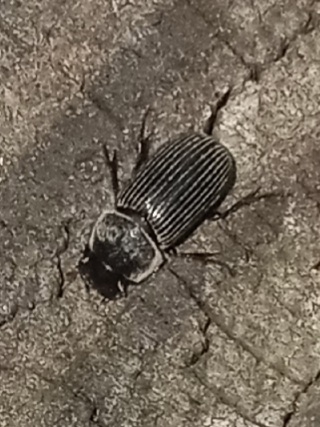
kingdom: Animalia
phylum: Arthropoda
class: Insecta
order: Coleoptera
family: Scarabaeidae
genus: Martineziana
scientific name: Martineziana dutertrei
